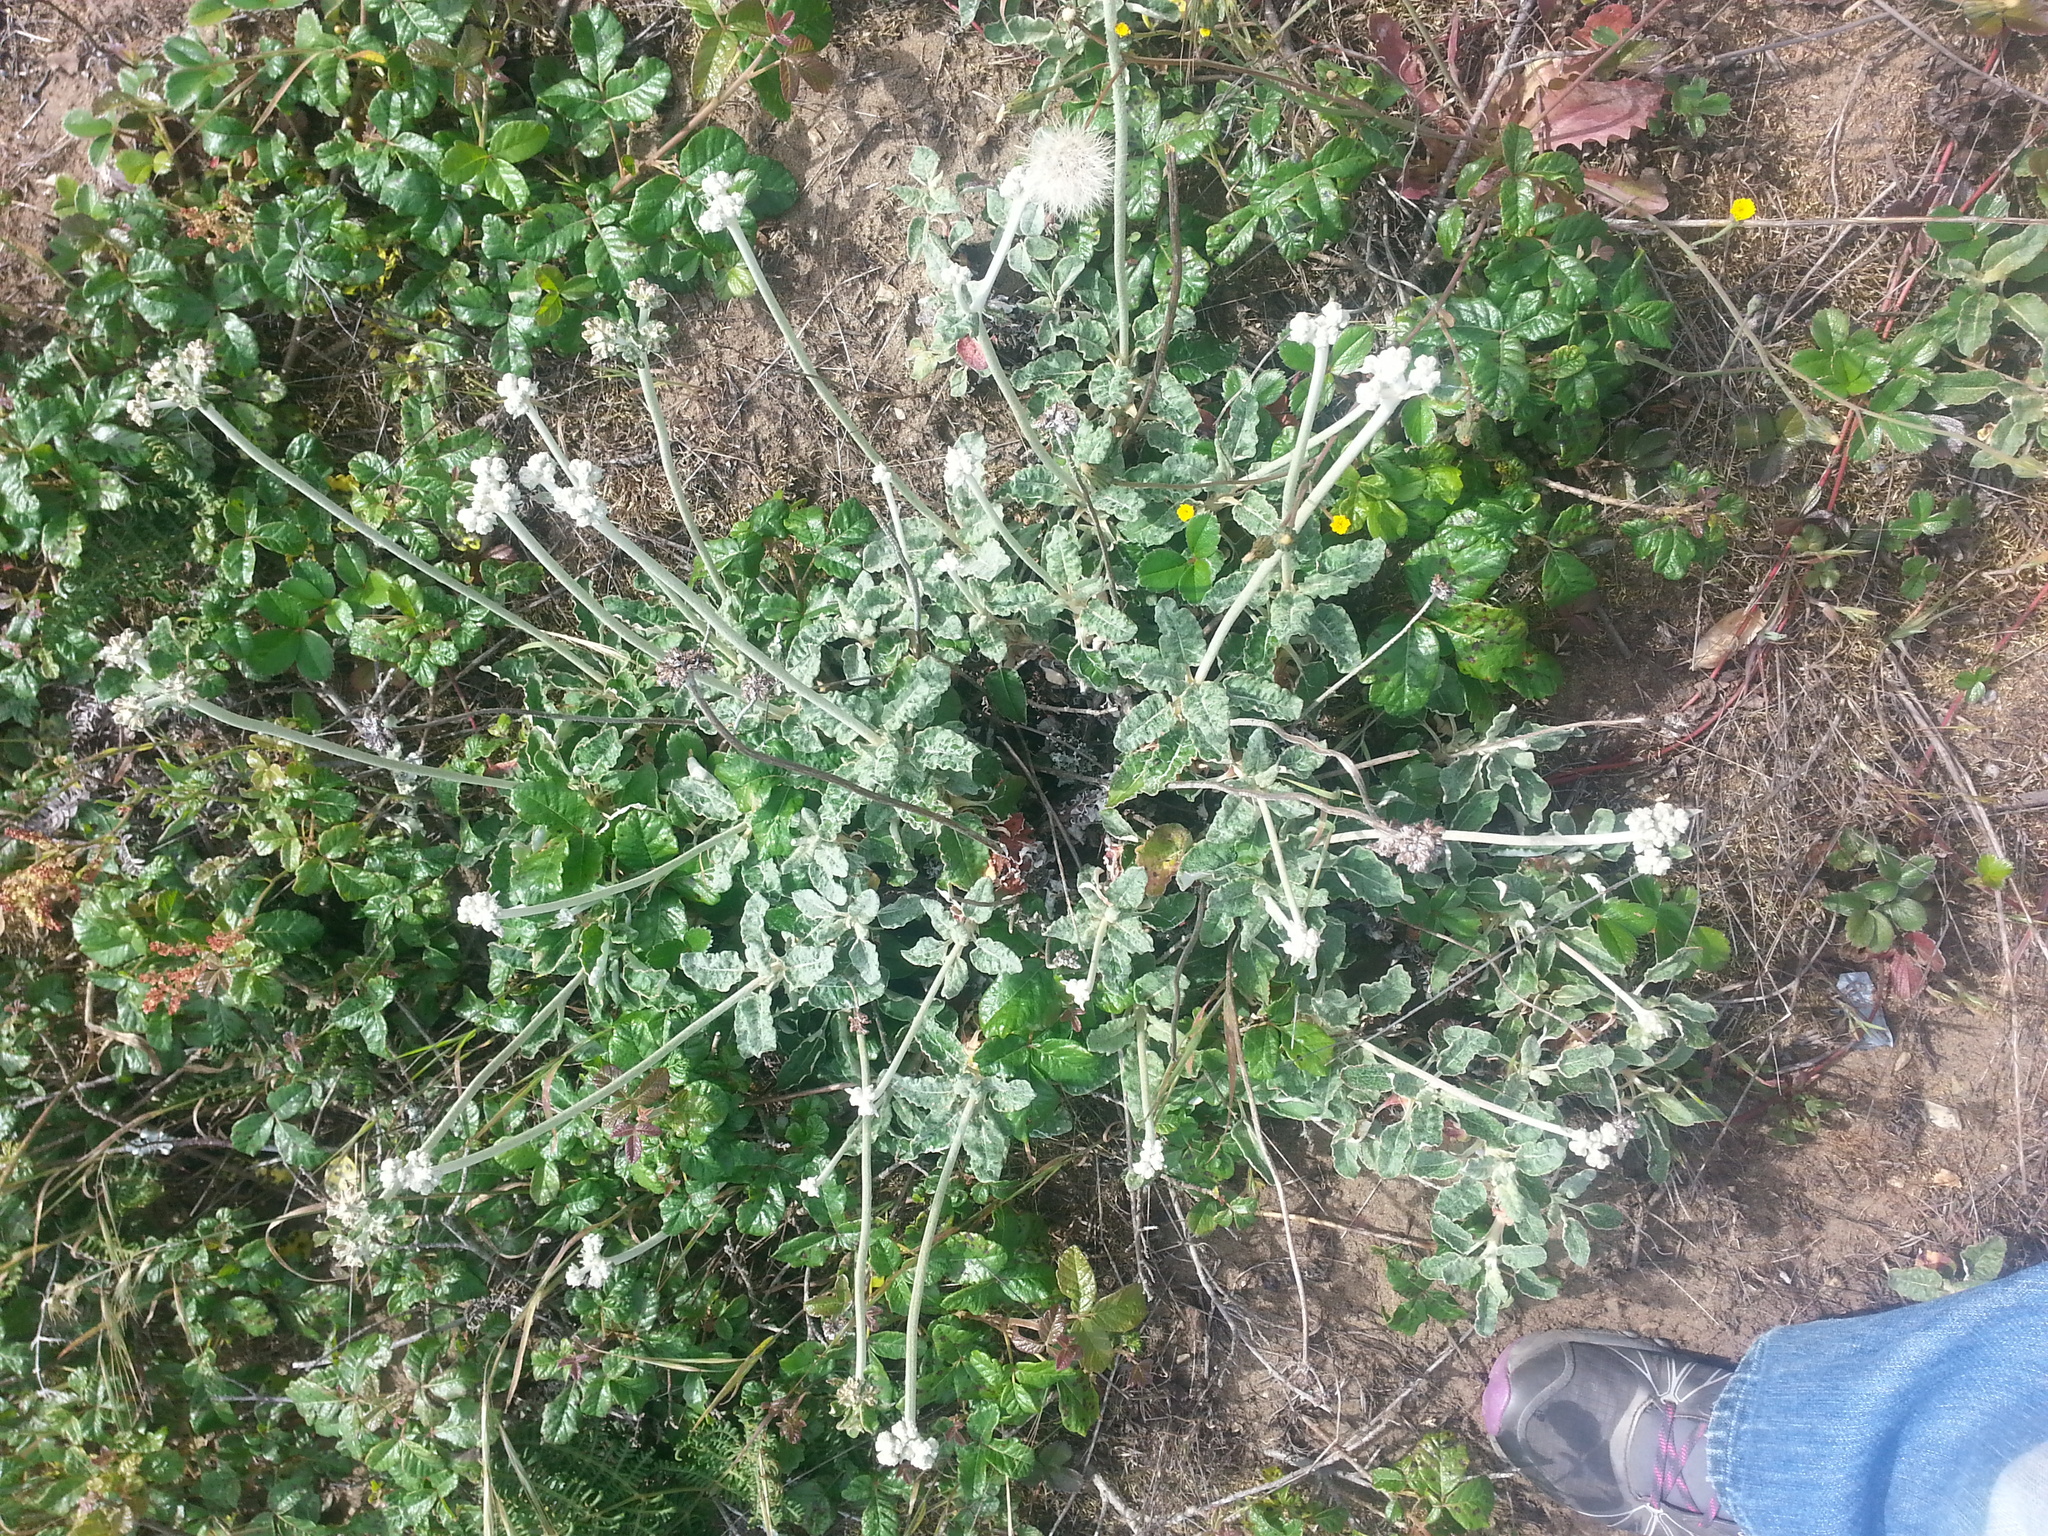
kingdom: Plantae
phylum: Tracheophyta
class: Magnoliopsida
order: Caryophyllales
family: Polygonaceae
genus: Eriogonum
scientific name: Eriogonum latifolium
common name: Seaside wild buckwheat
